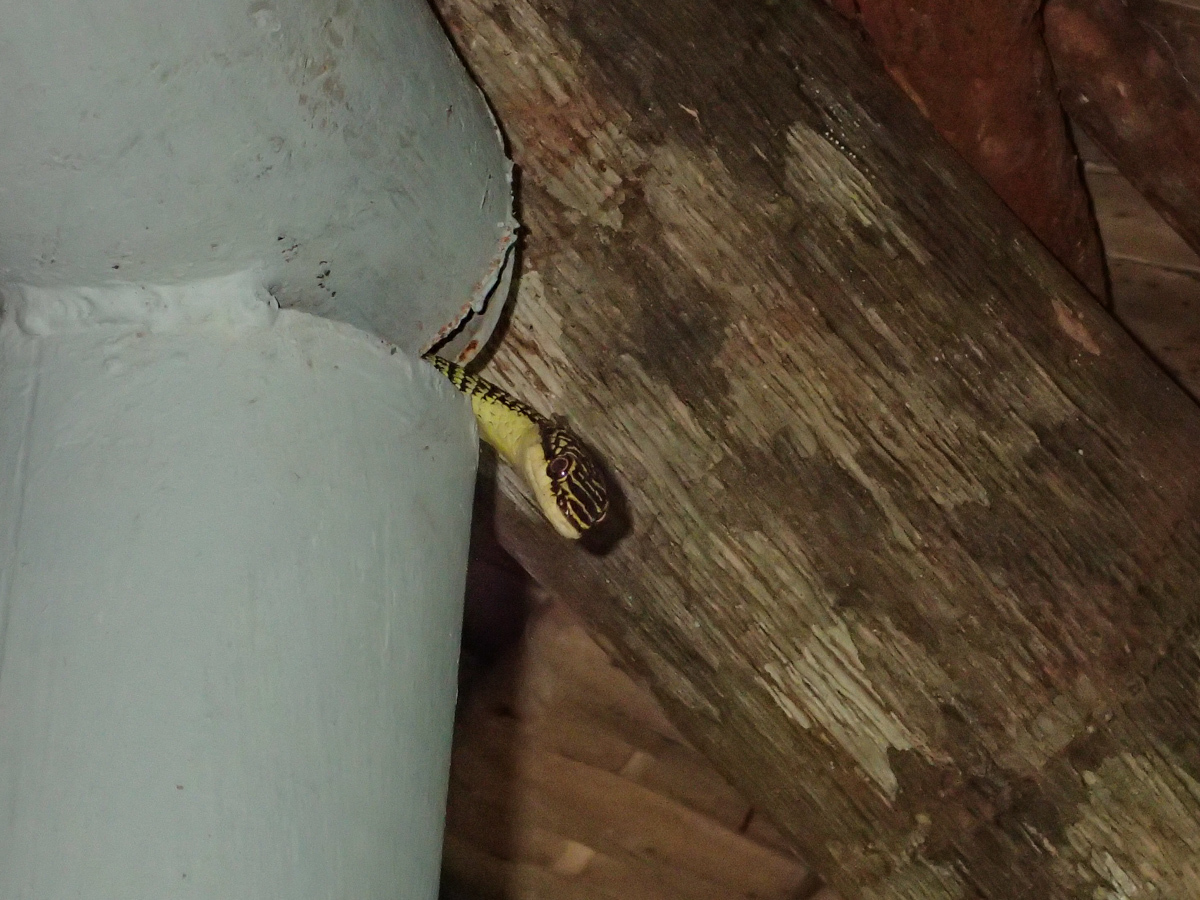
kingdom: Animalia
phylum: Chordata
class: Squamata
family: Colubridae
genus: Chrysopelea
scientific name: Chrysopelea ornata
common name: Golden flying snake
